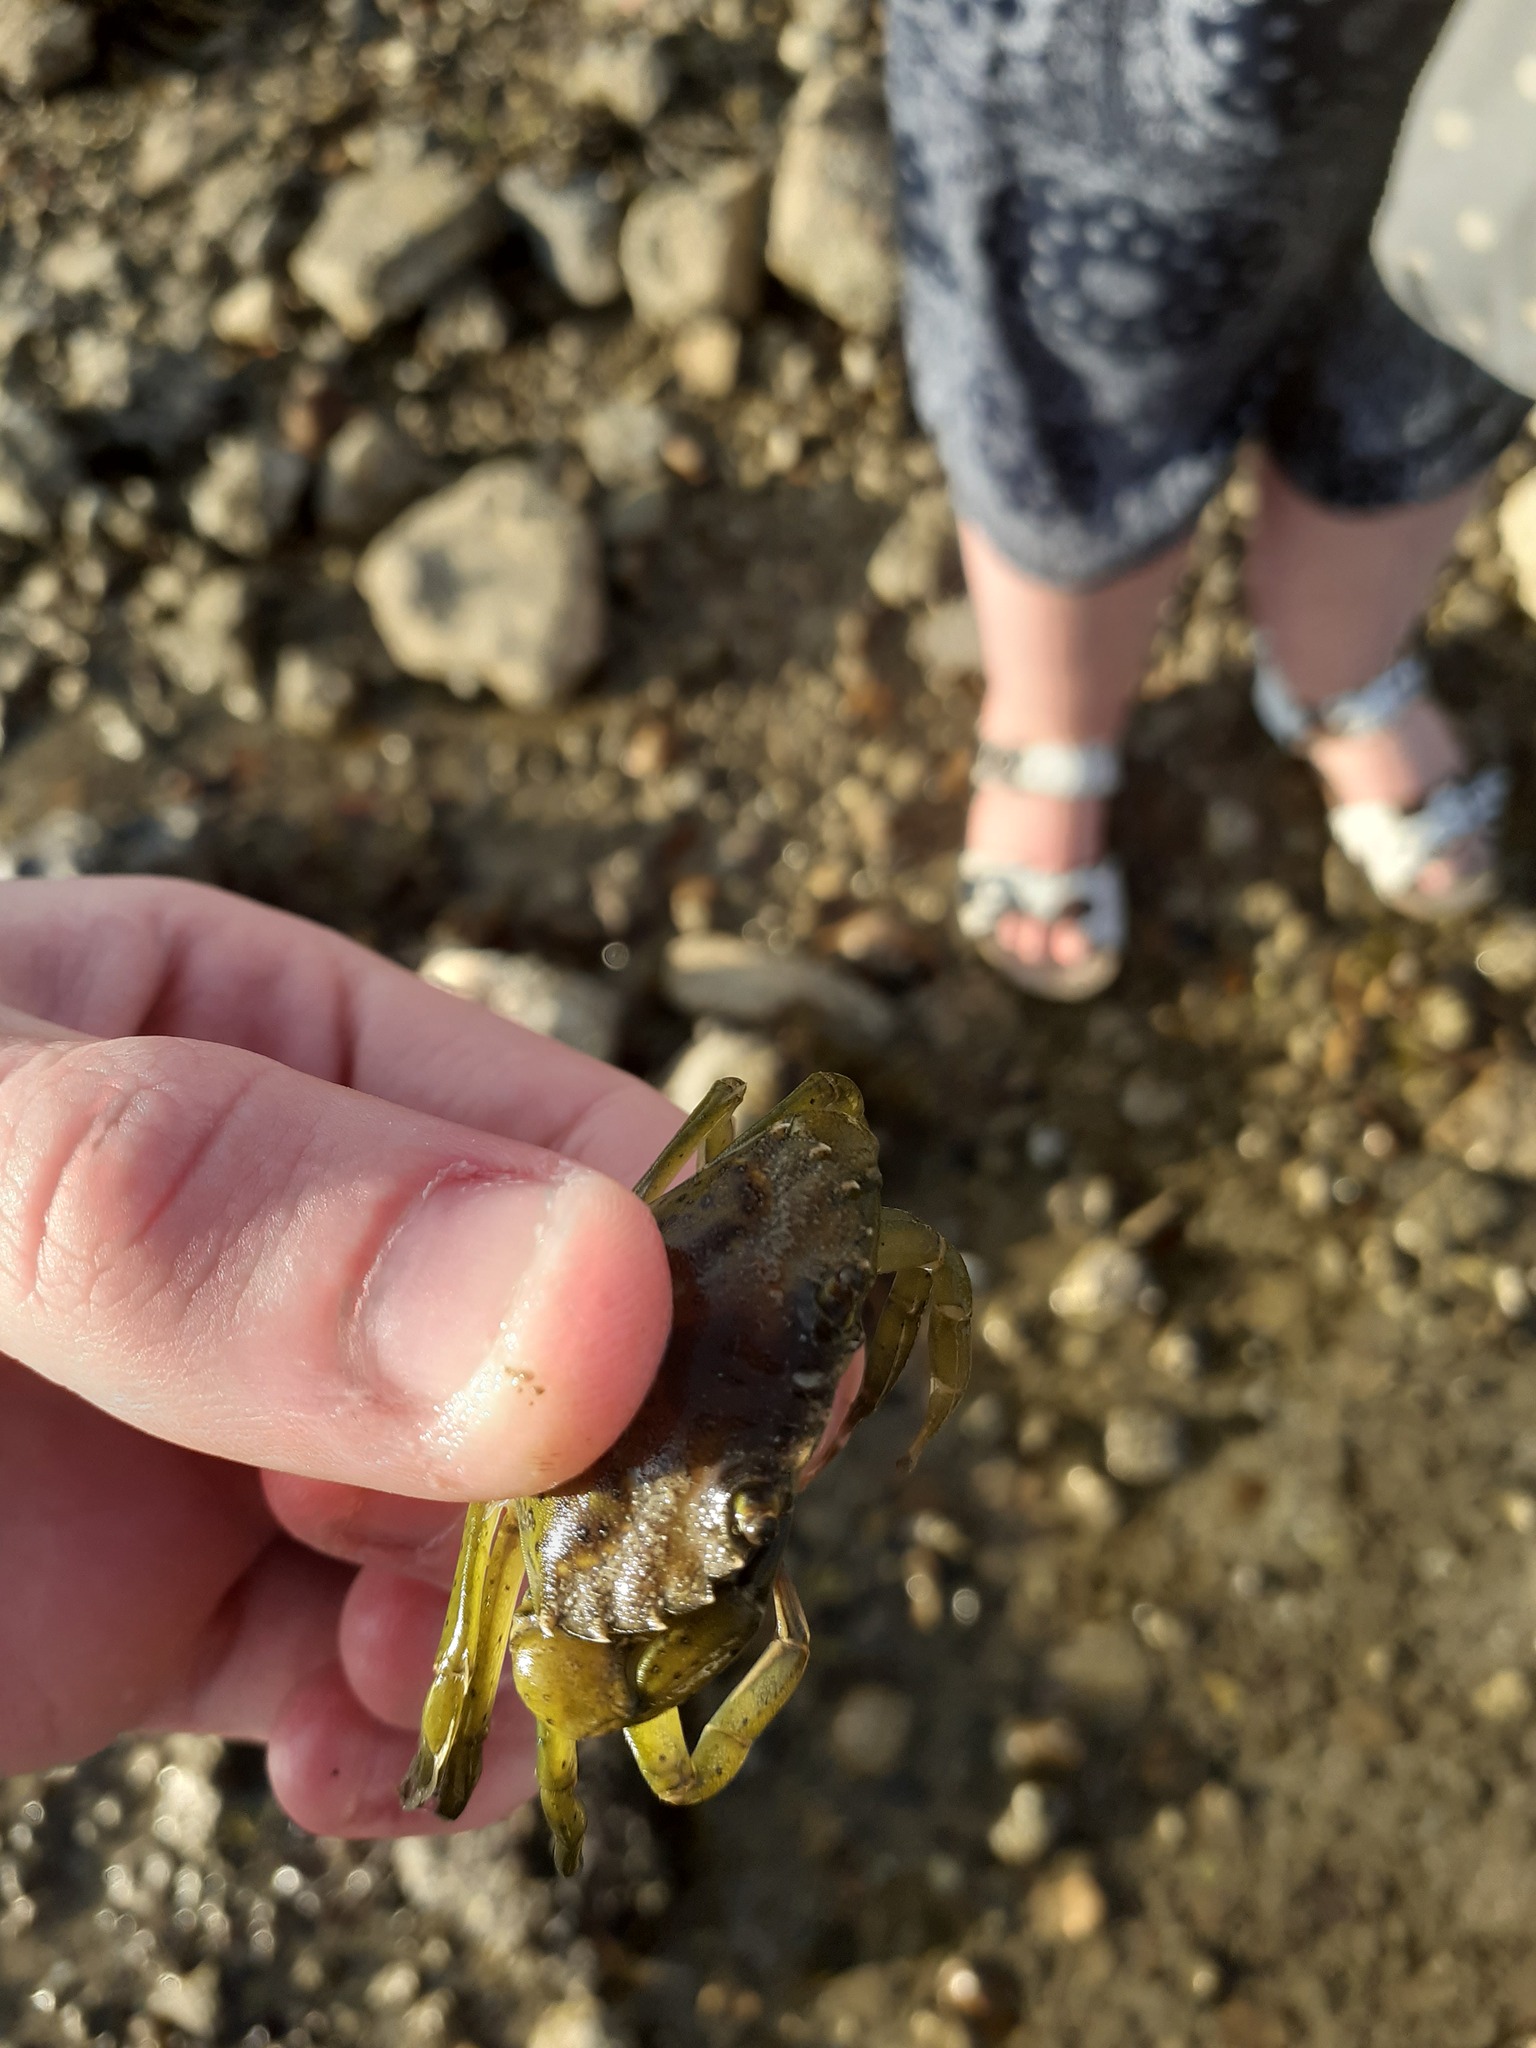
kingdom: Animalia
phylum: Arthropoda
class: Malacostraca
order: Decapoda
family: Carcinidae
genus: Carcinus
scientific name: Carcinus maenas
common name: European green crab
